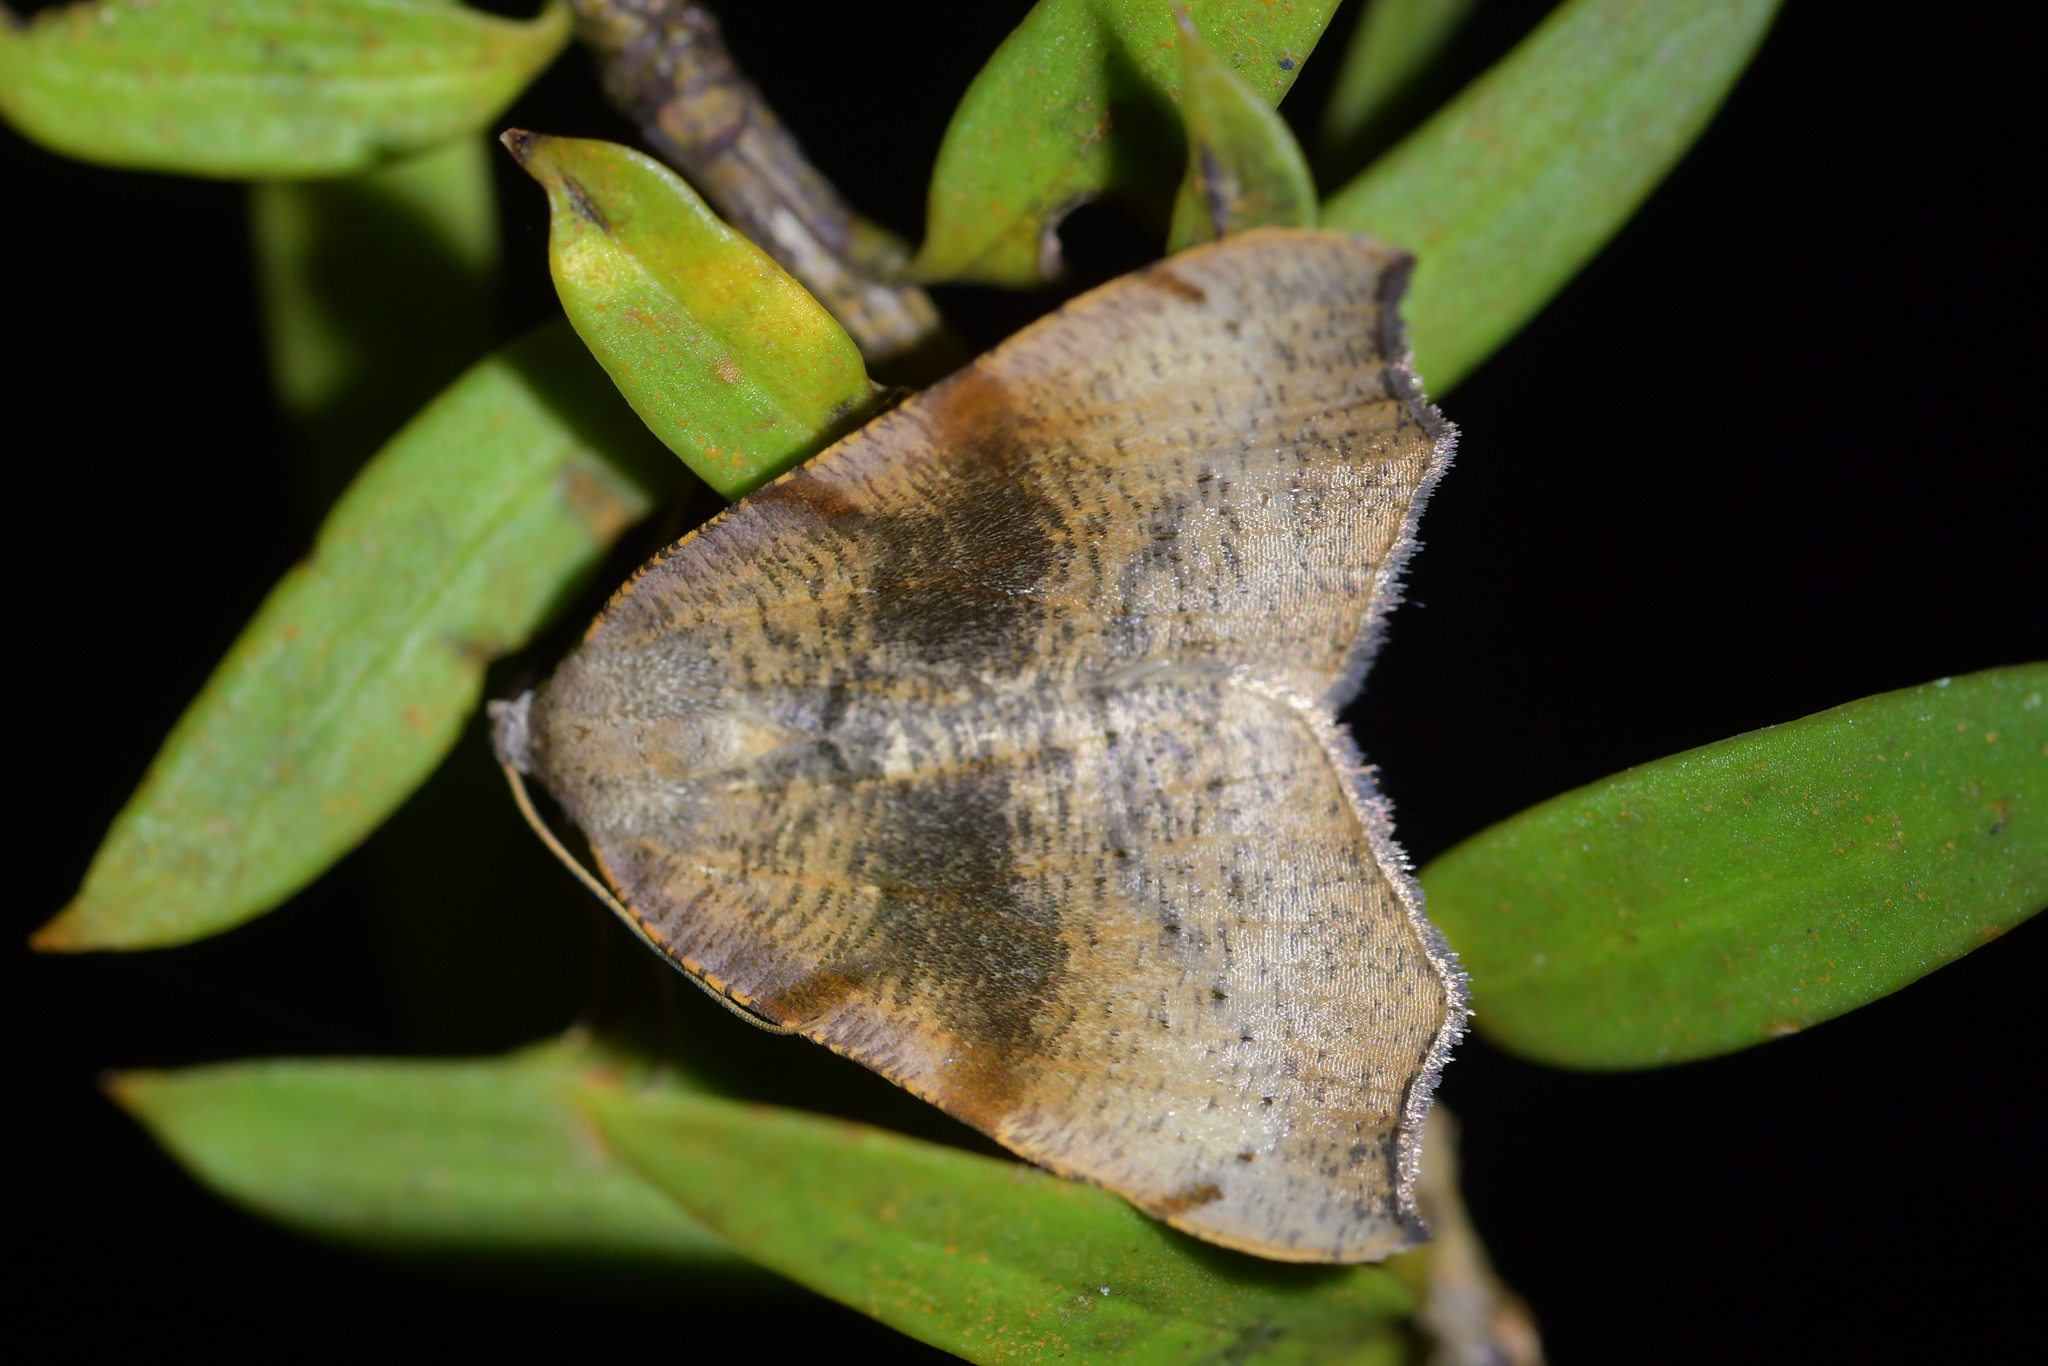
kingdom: Animalia
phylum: Arthropoda
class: Insecta
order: Lepidoptera
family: Geometridae
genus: Sestra
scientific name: Sestra flexata
